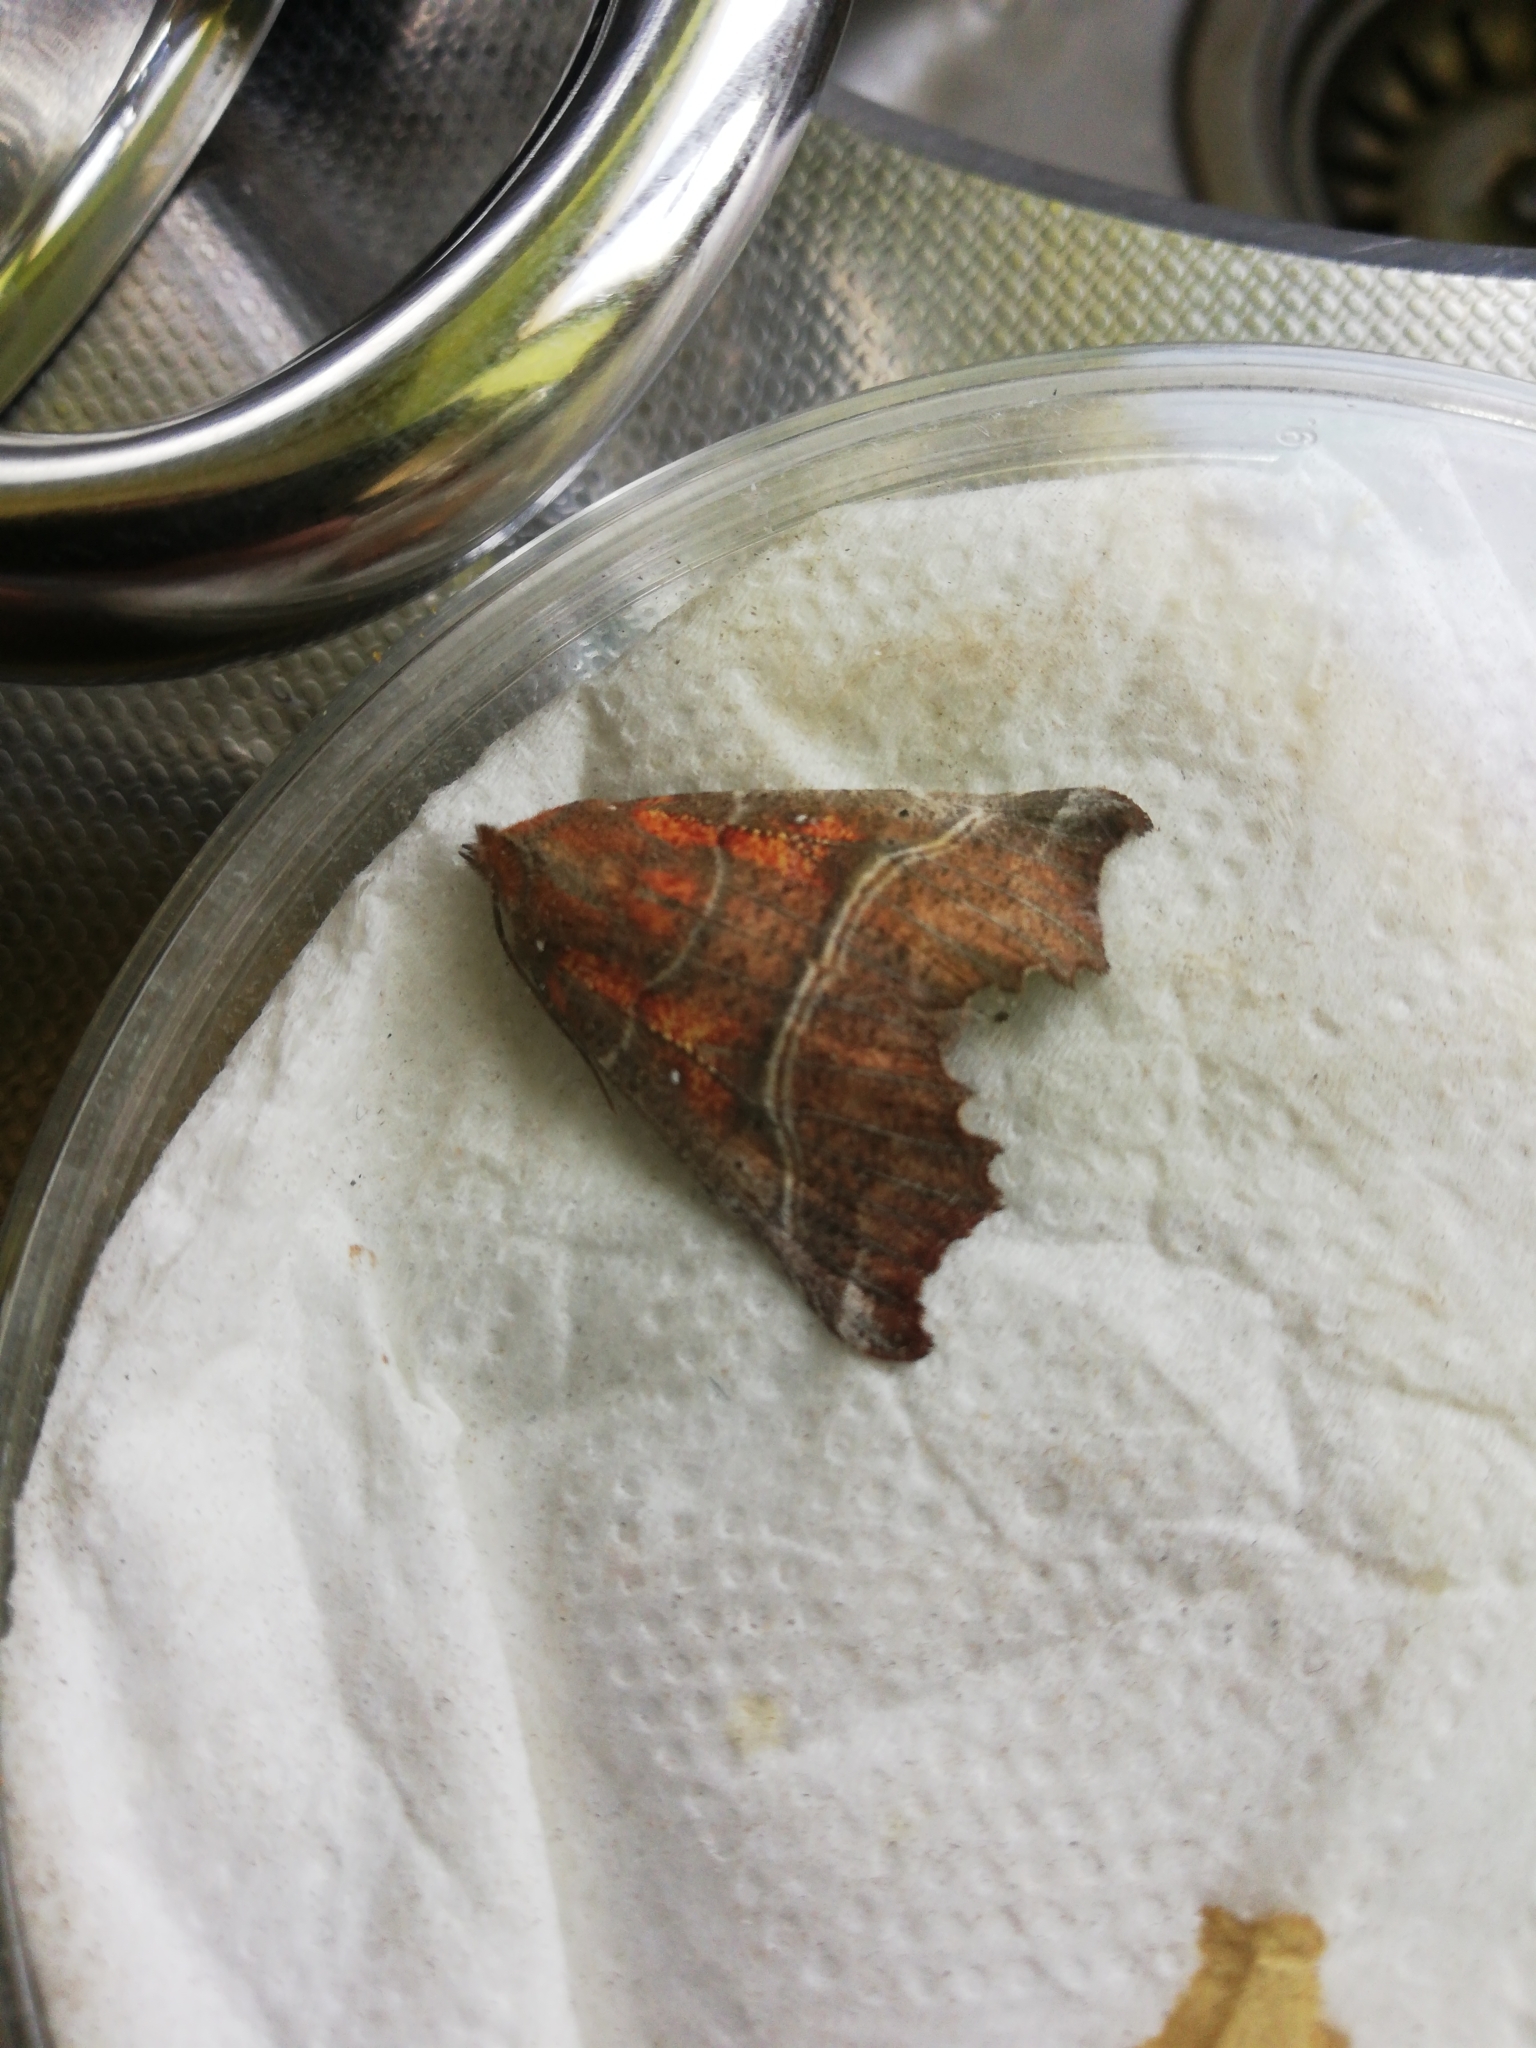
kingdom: Animalia
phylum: Arthropoda
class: Insecta
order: Lepidoptera
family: Erebidae
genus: Scoliopteryx
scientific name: Scoliopteryx libatrix
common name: Herald
